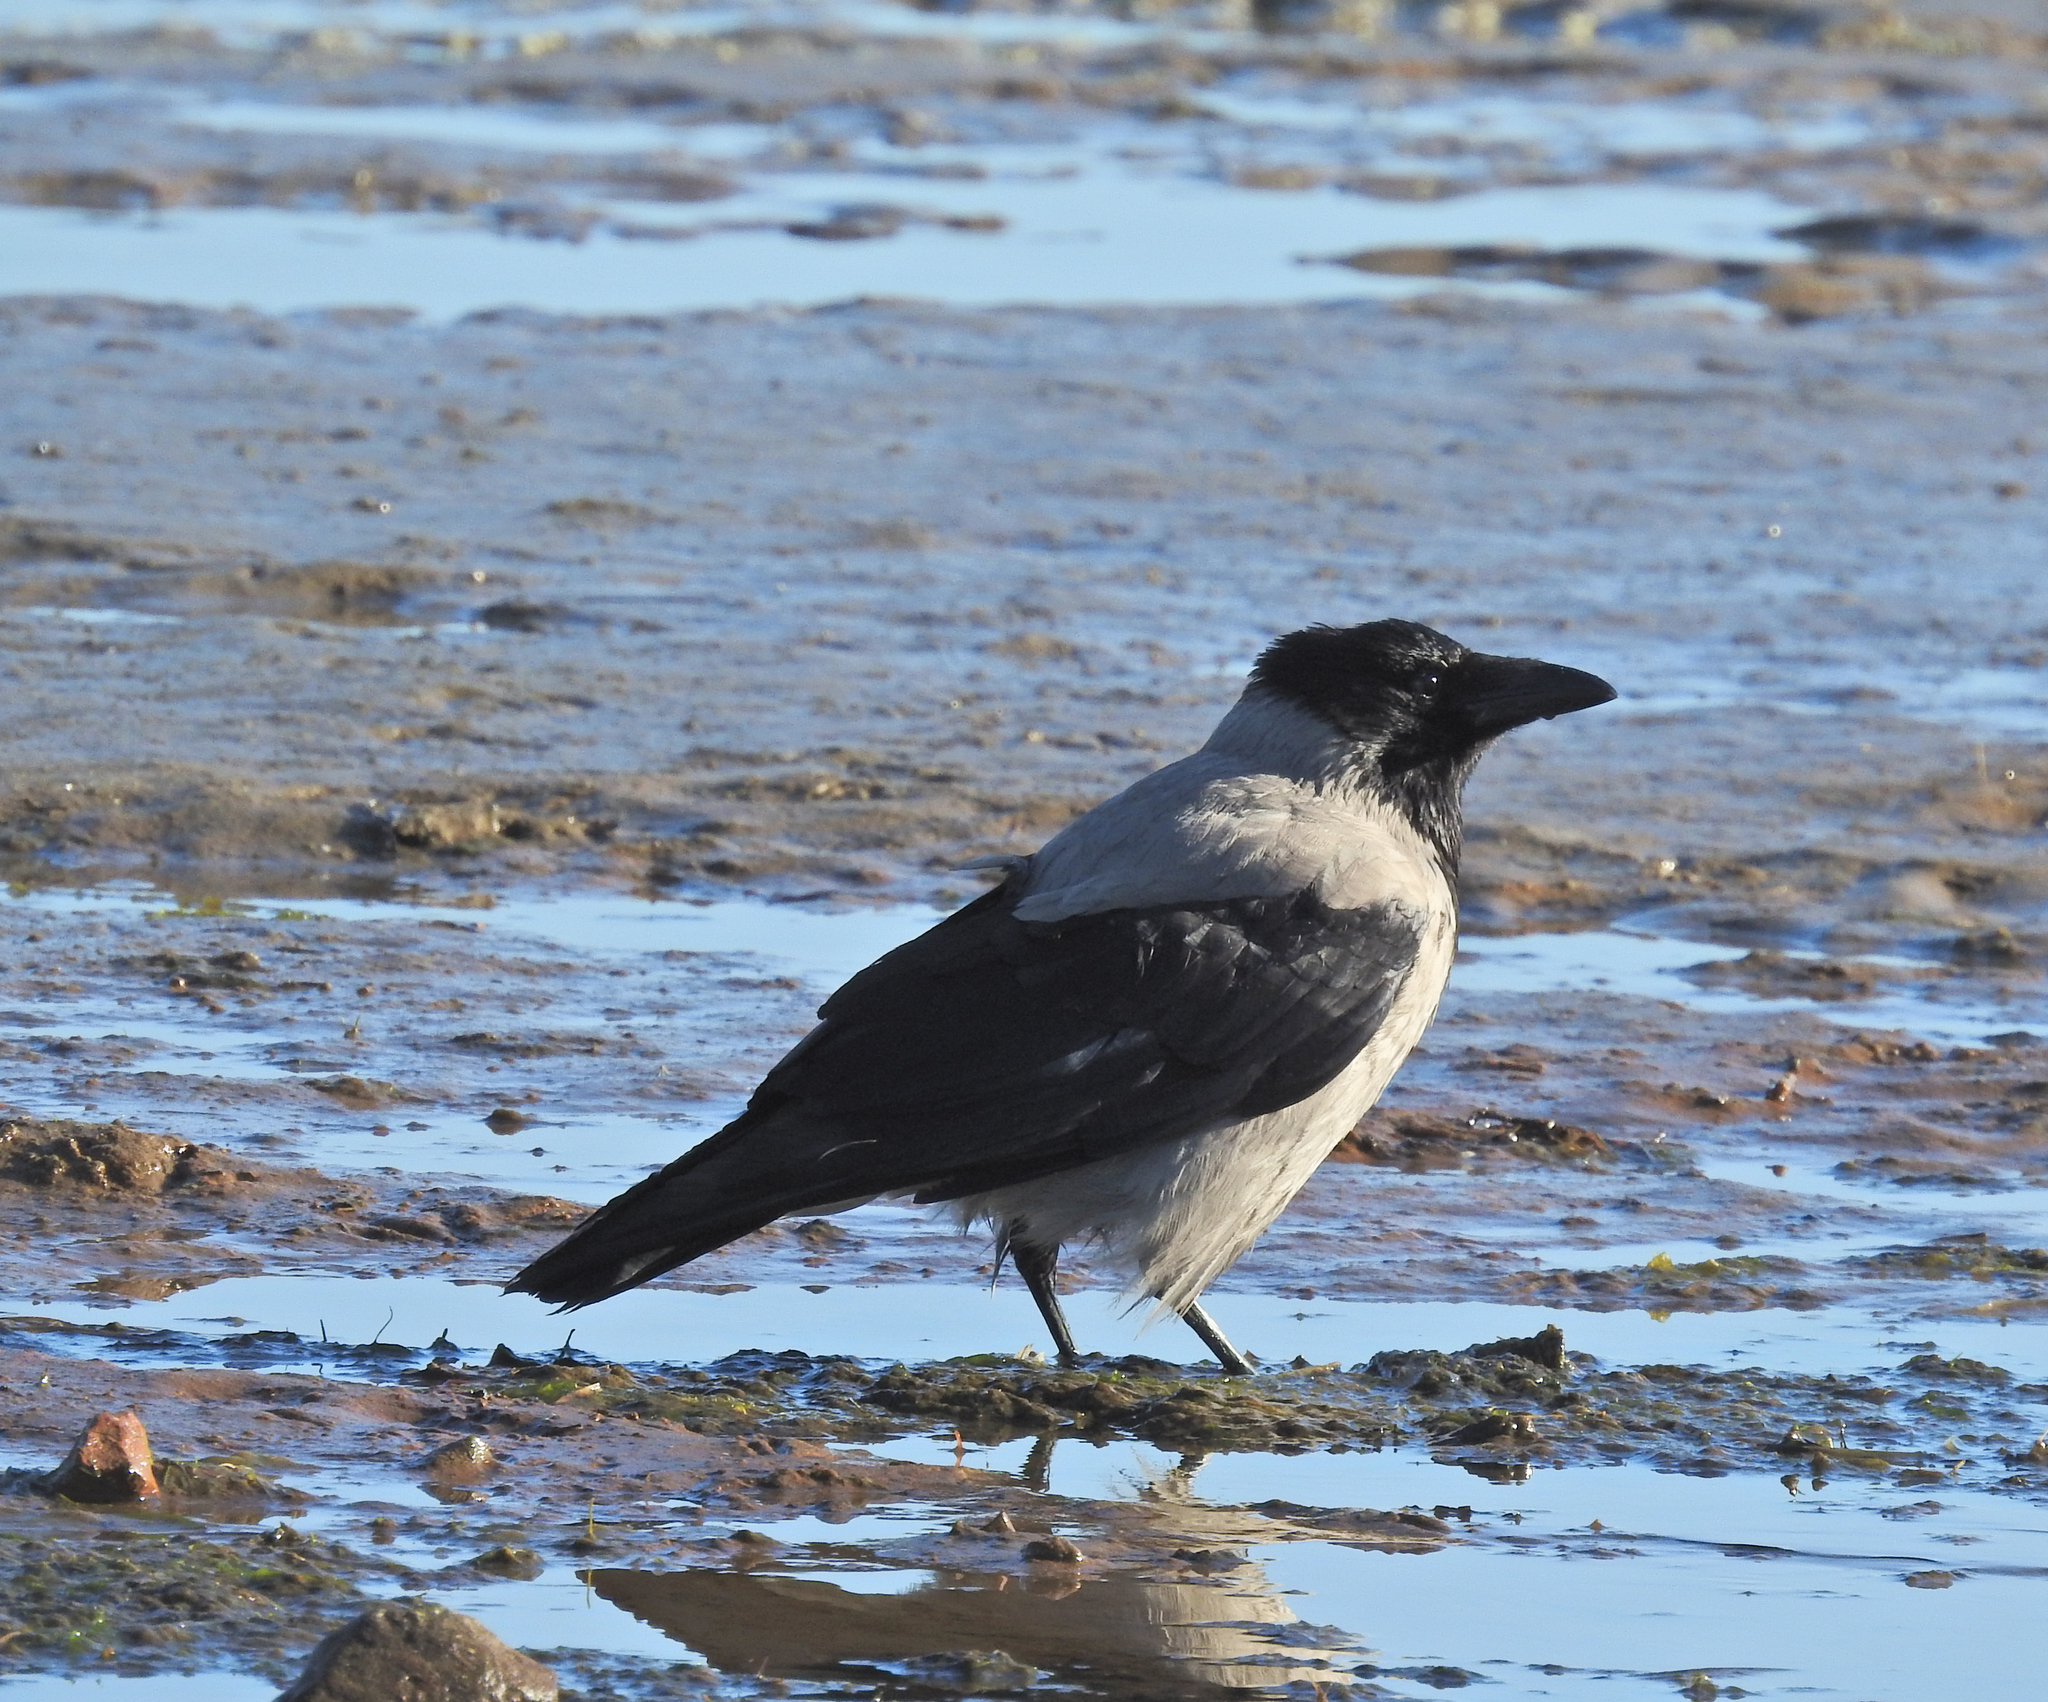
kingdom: Animalia
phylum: Chordata
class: Aves
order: Passeriformes
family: Corvidae
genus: Corvus
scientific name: Corvus cornix
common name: Hooded crow
